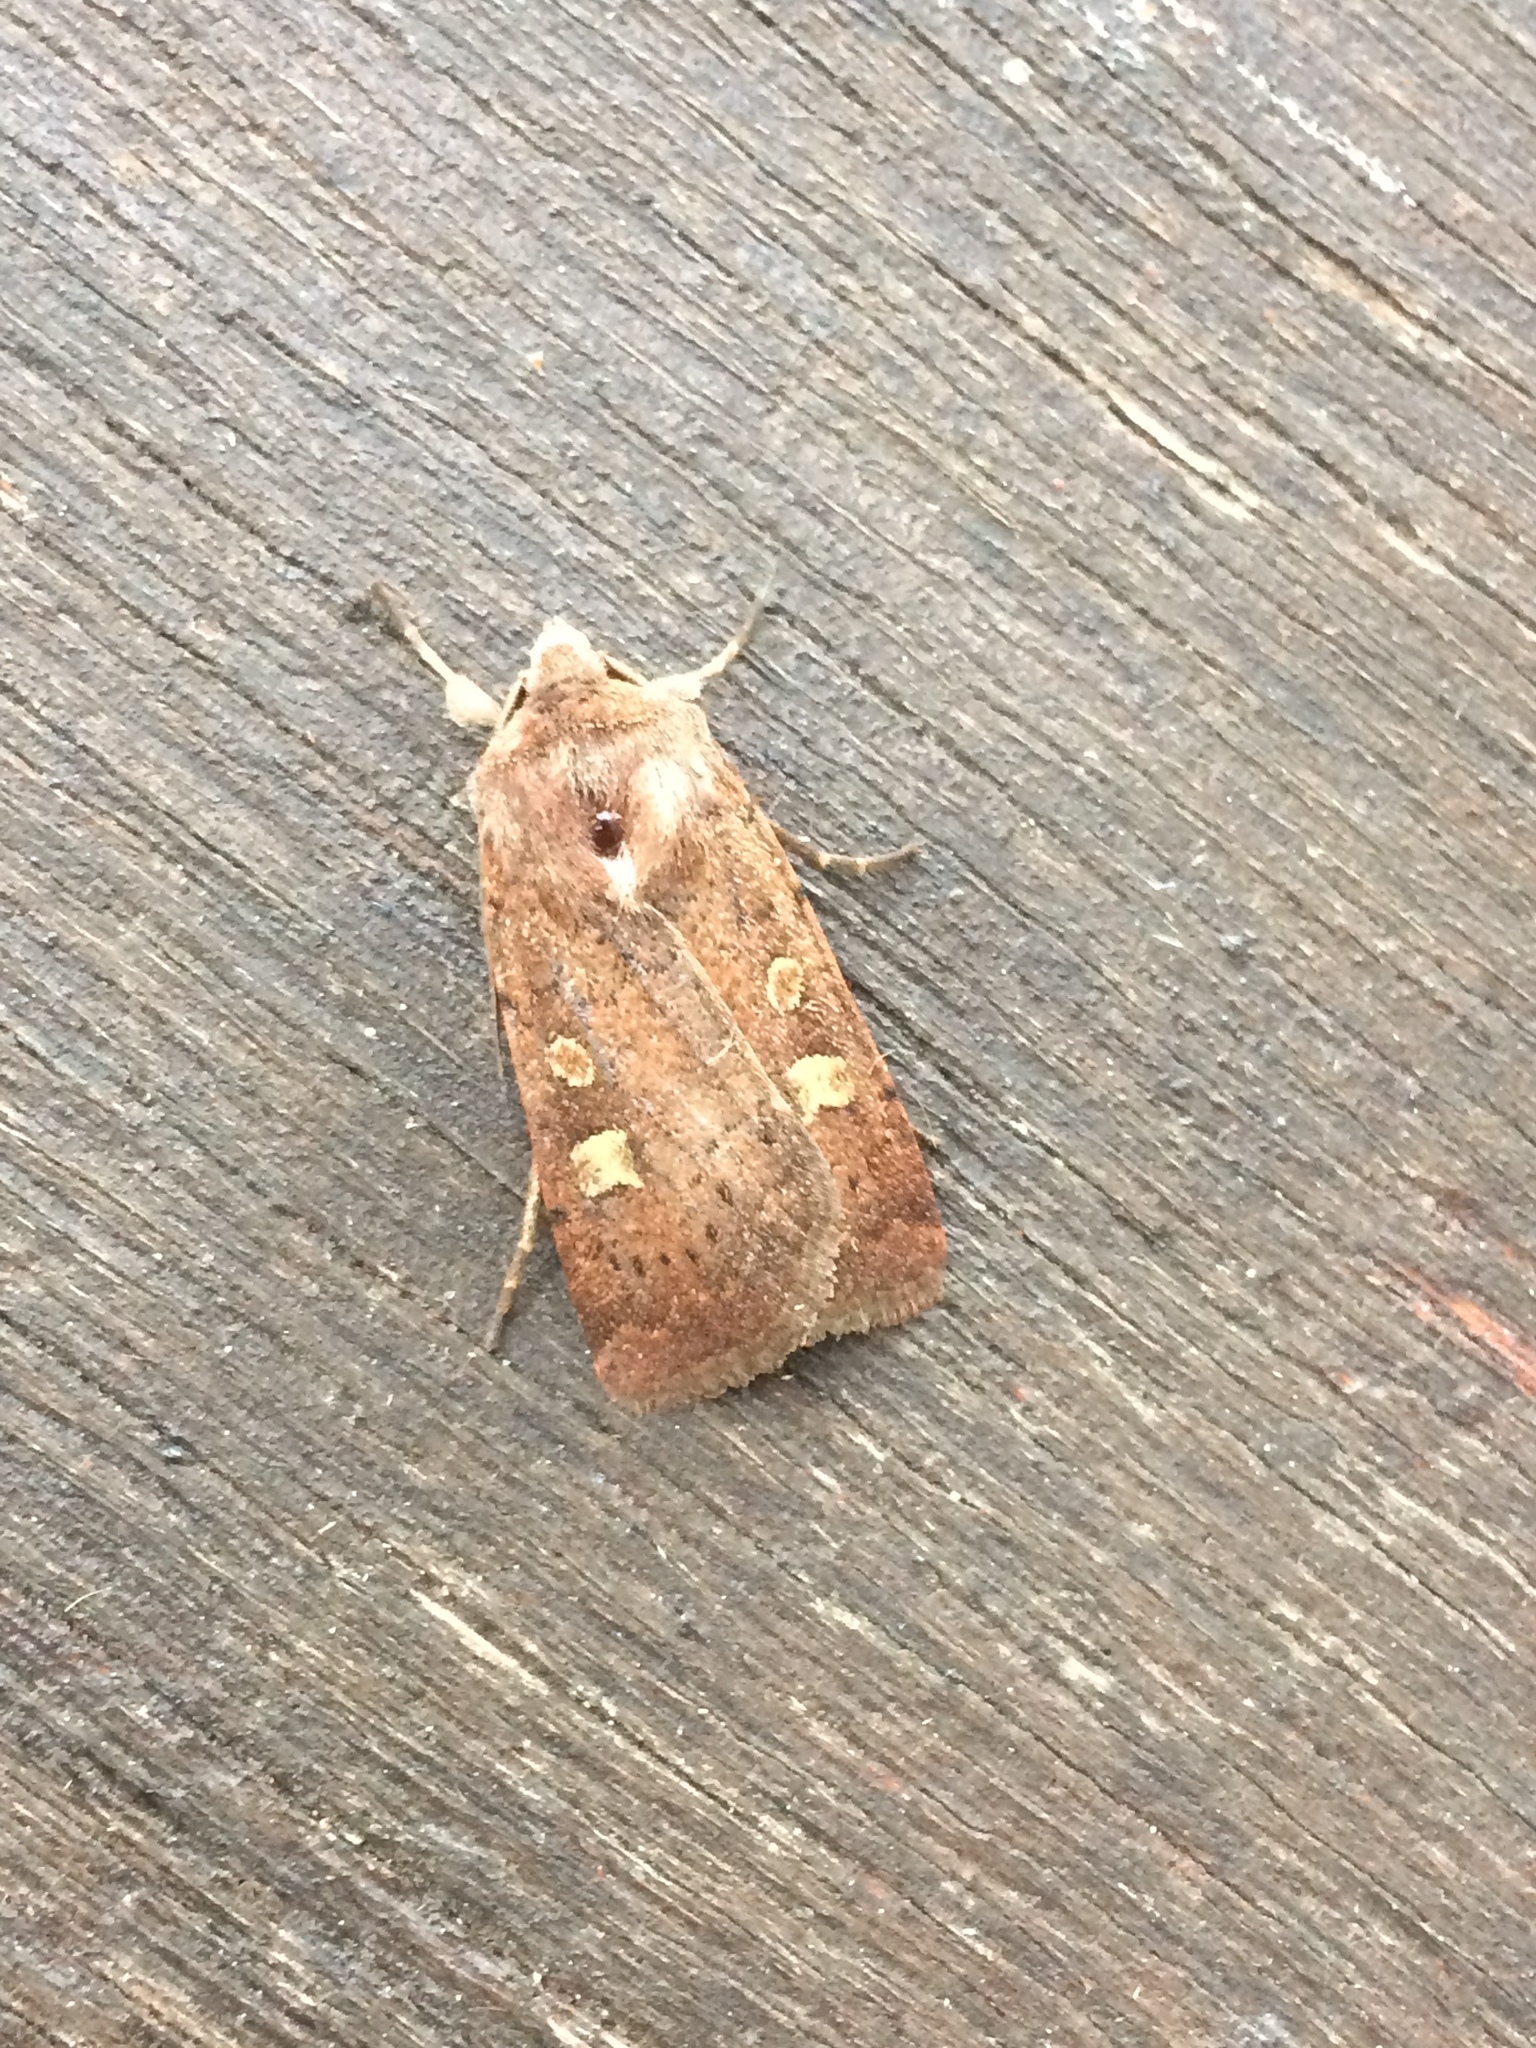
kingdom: Animalia
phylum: Arthropoda
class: Insecta
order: Lepidoptera
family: Noctuidae
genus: Xestia
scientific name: Xestia xanthographa
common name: Square-spot rustic
